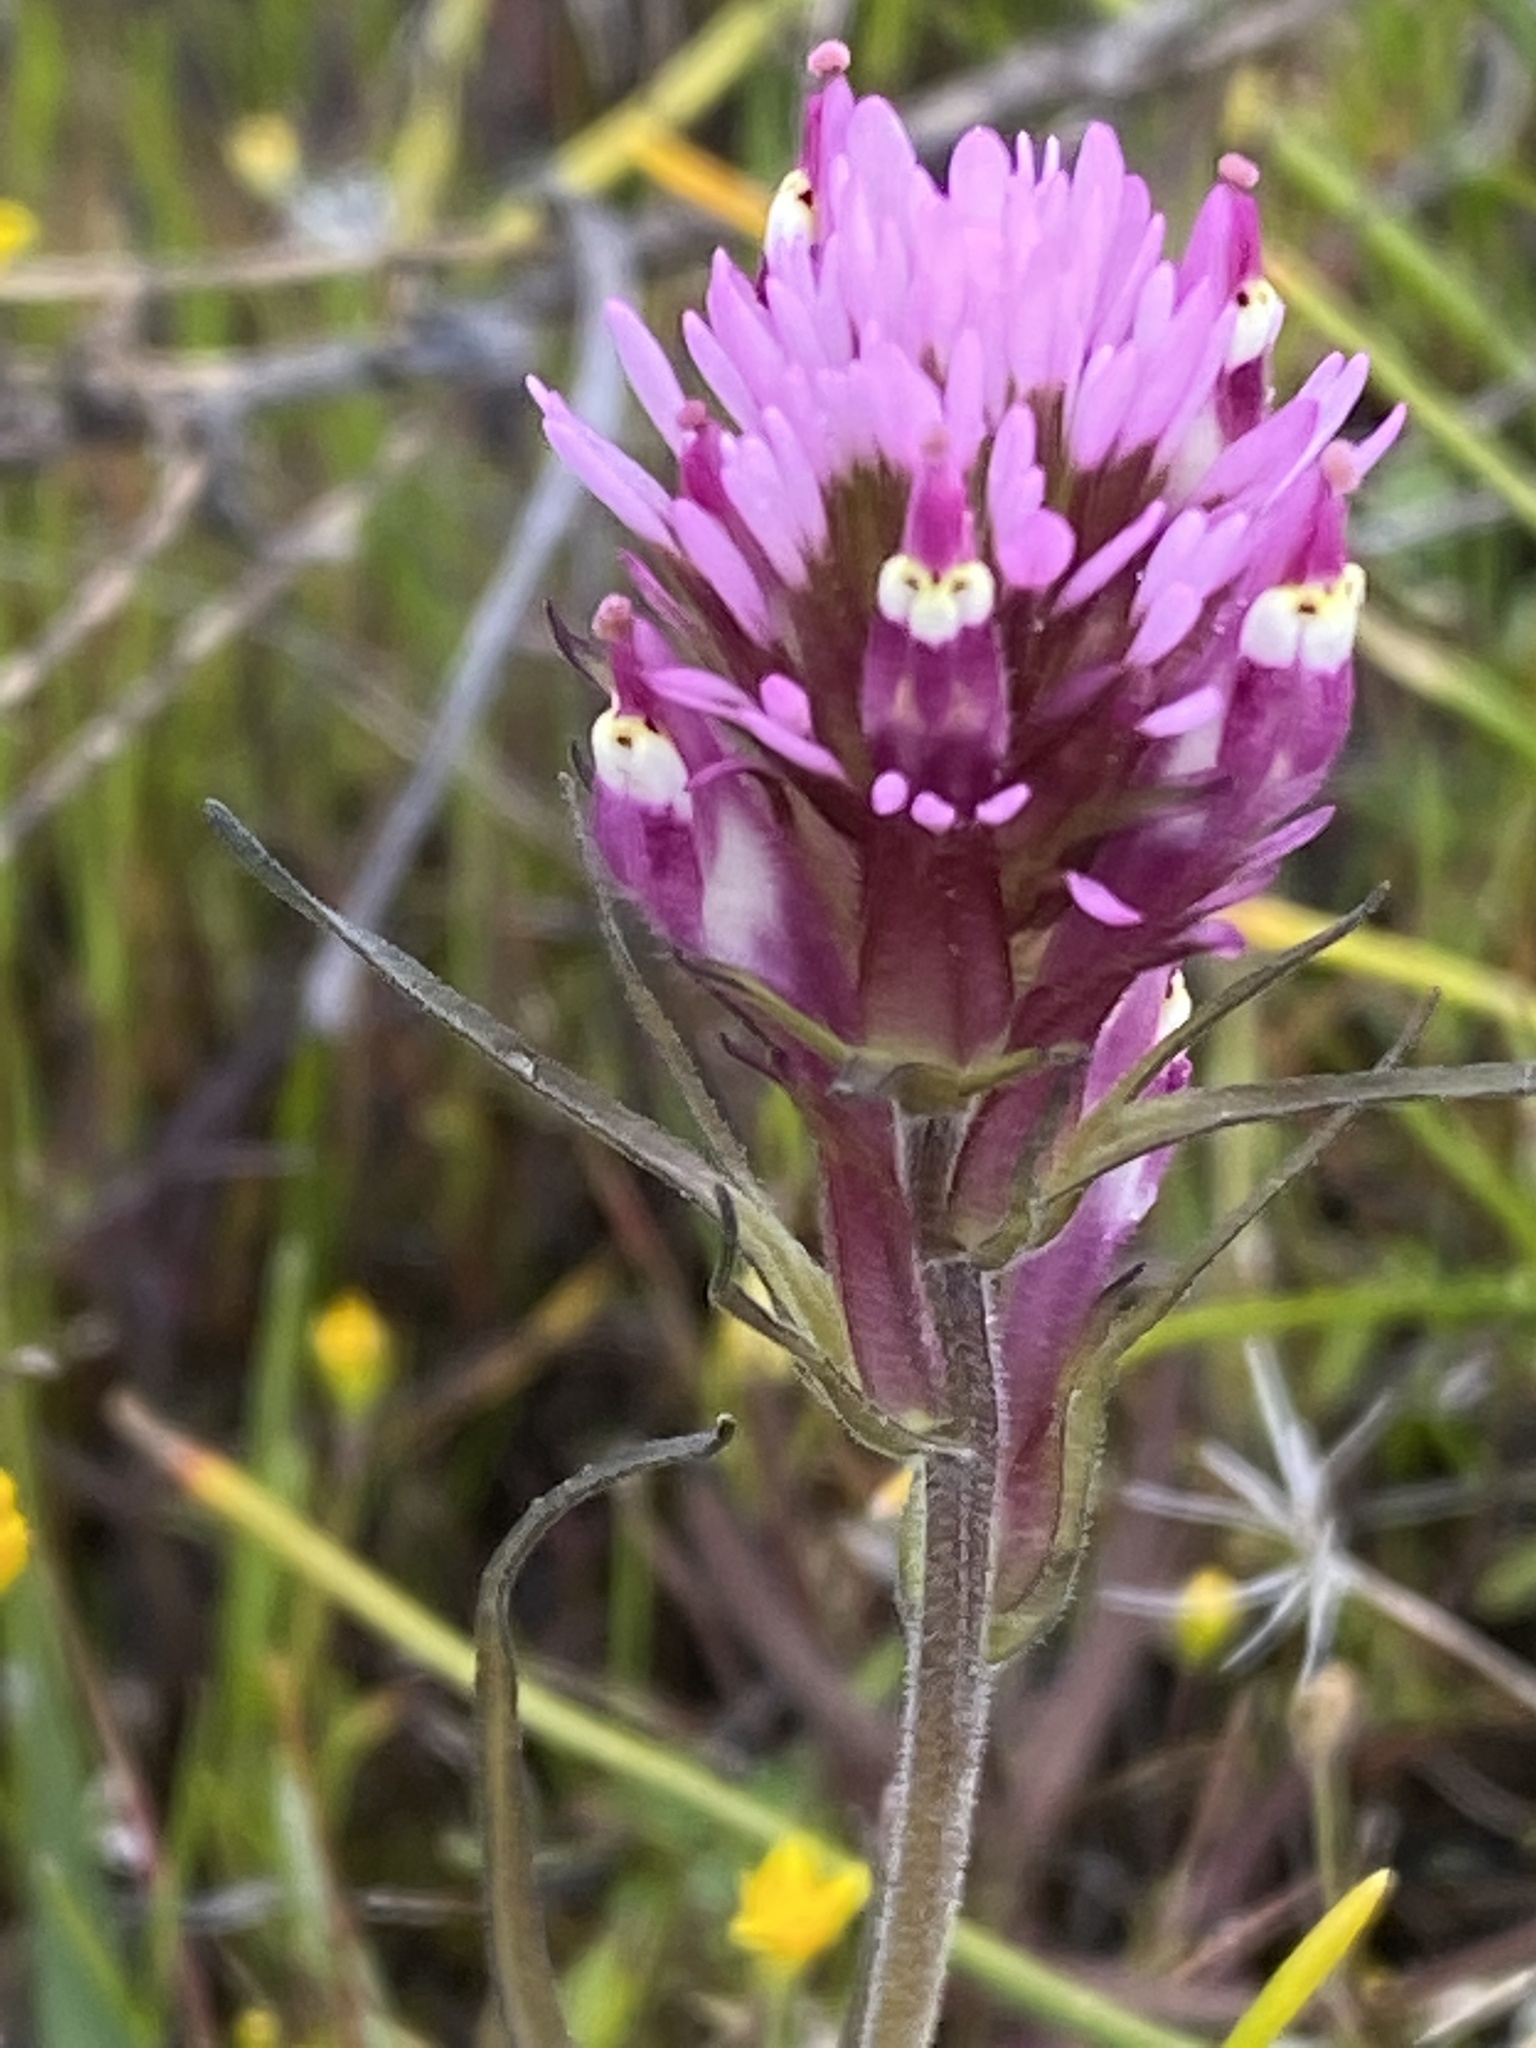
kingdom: Plantae
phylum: Tracheophyta
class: Magnoliopsida
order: Lamiales
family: Orobanchaceae
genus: Castilleja
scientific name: Castilleja densiflora
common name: Dense-flower indian paintbrush
